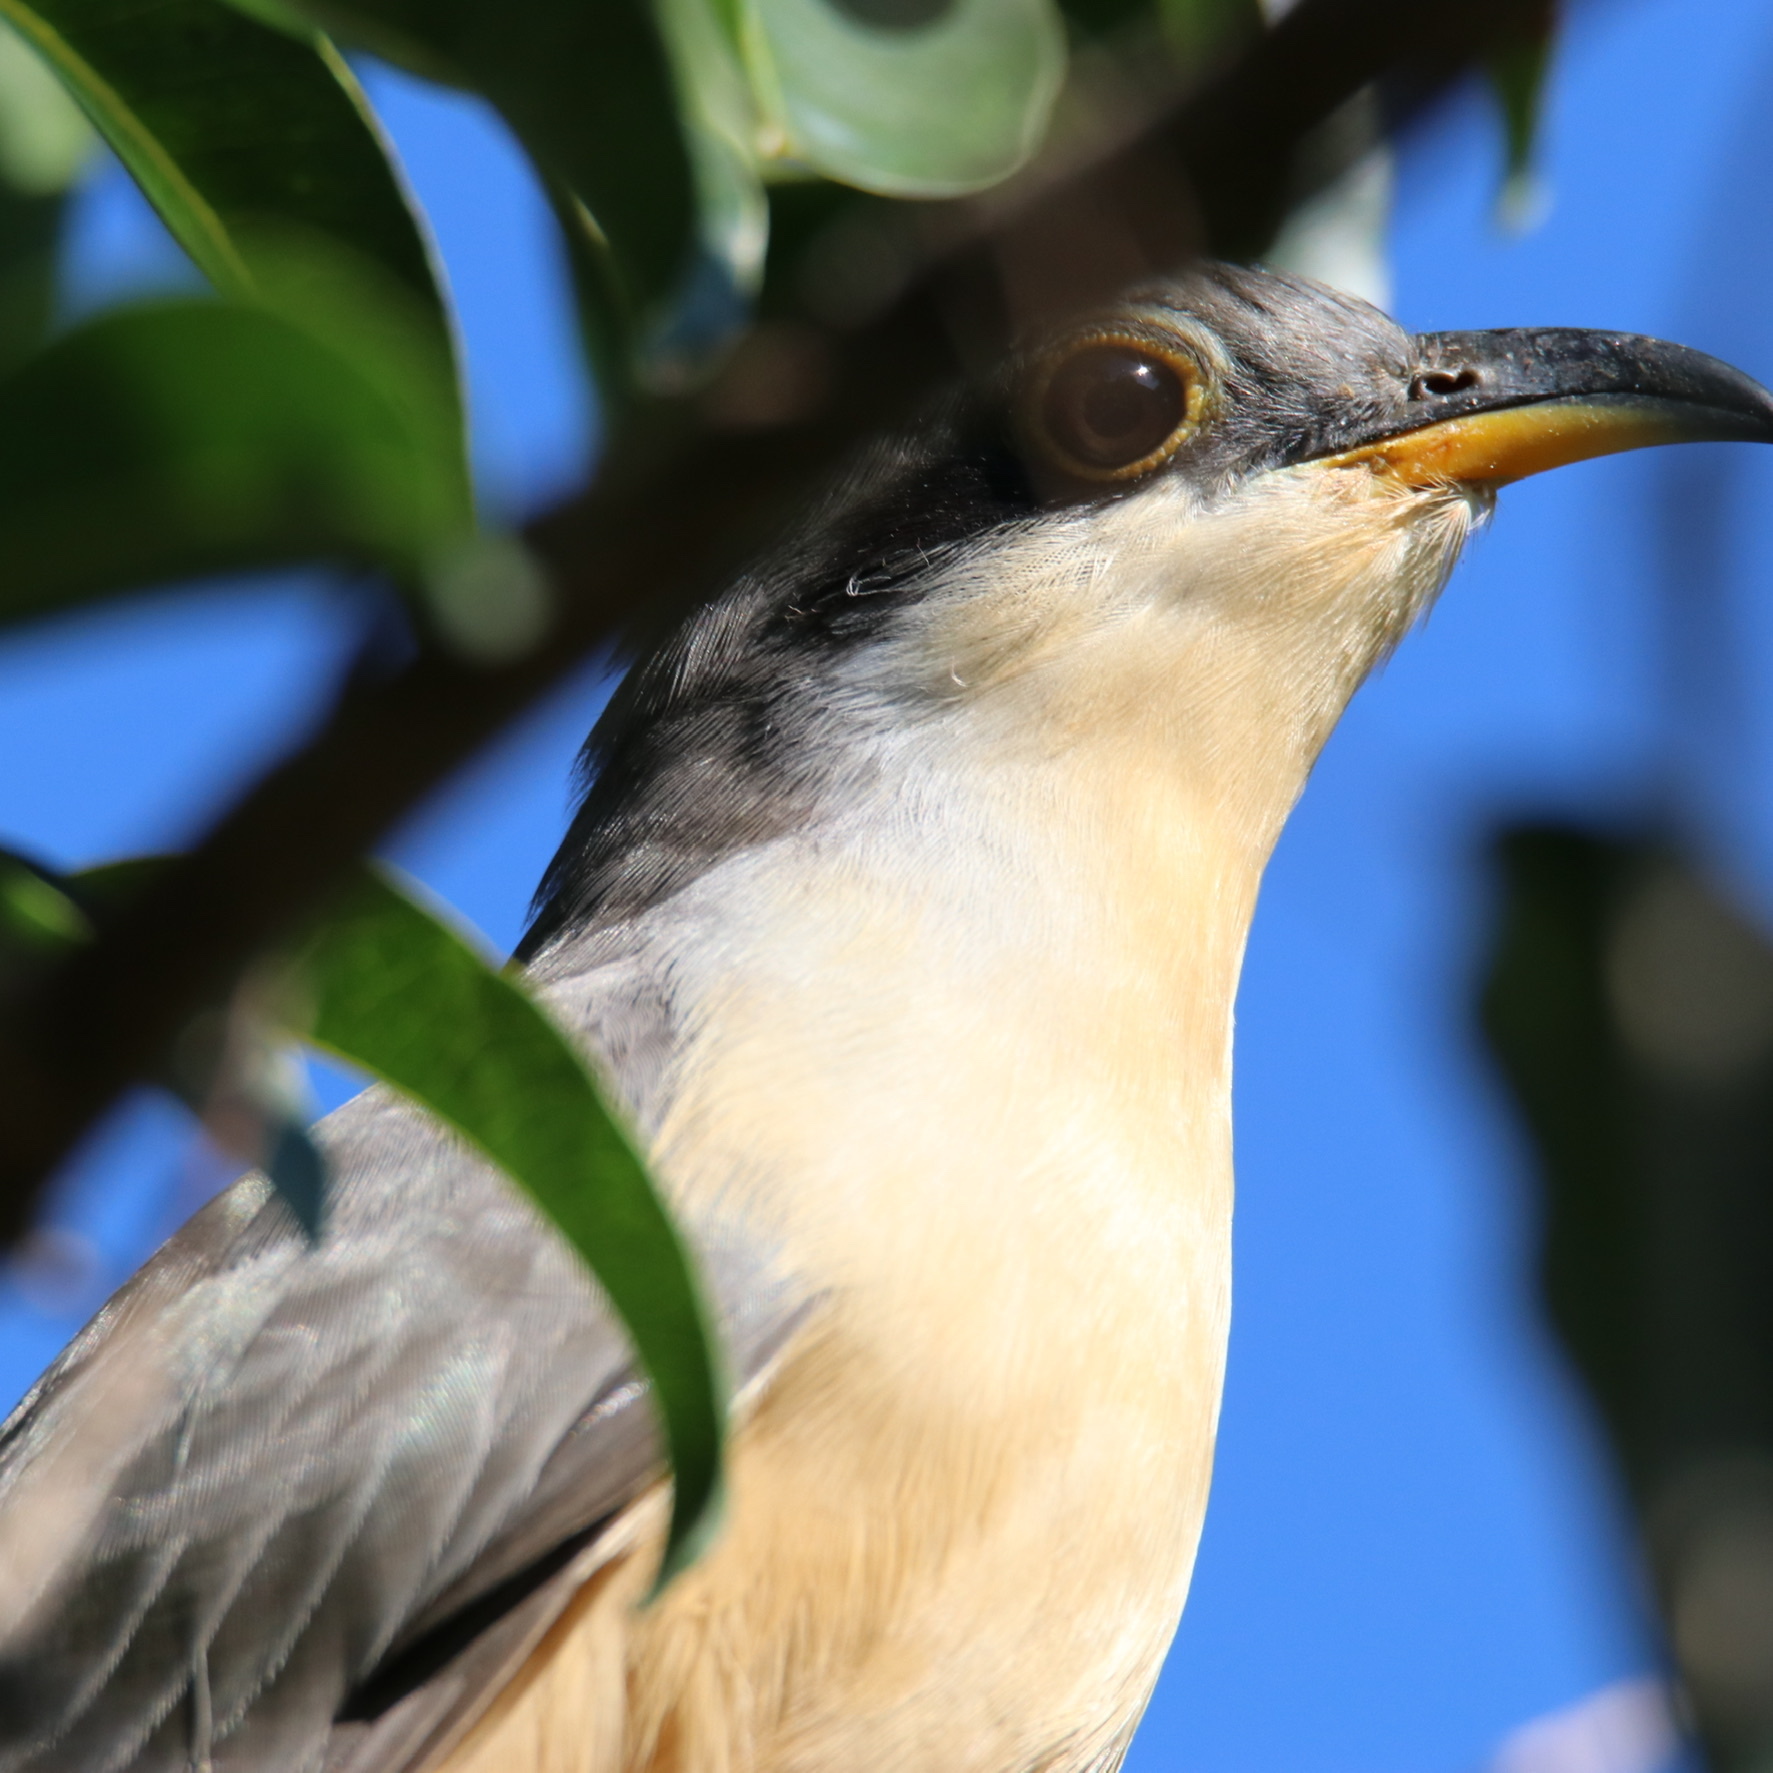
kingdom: Animalia
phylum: Chordata
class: Aves
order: Cuculiformes
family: Cuculidae
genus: Coccyzus
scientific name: Coccyzus minor
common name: Mangrove cuckoo
